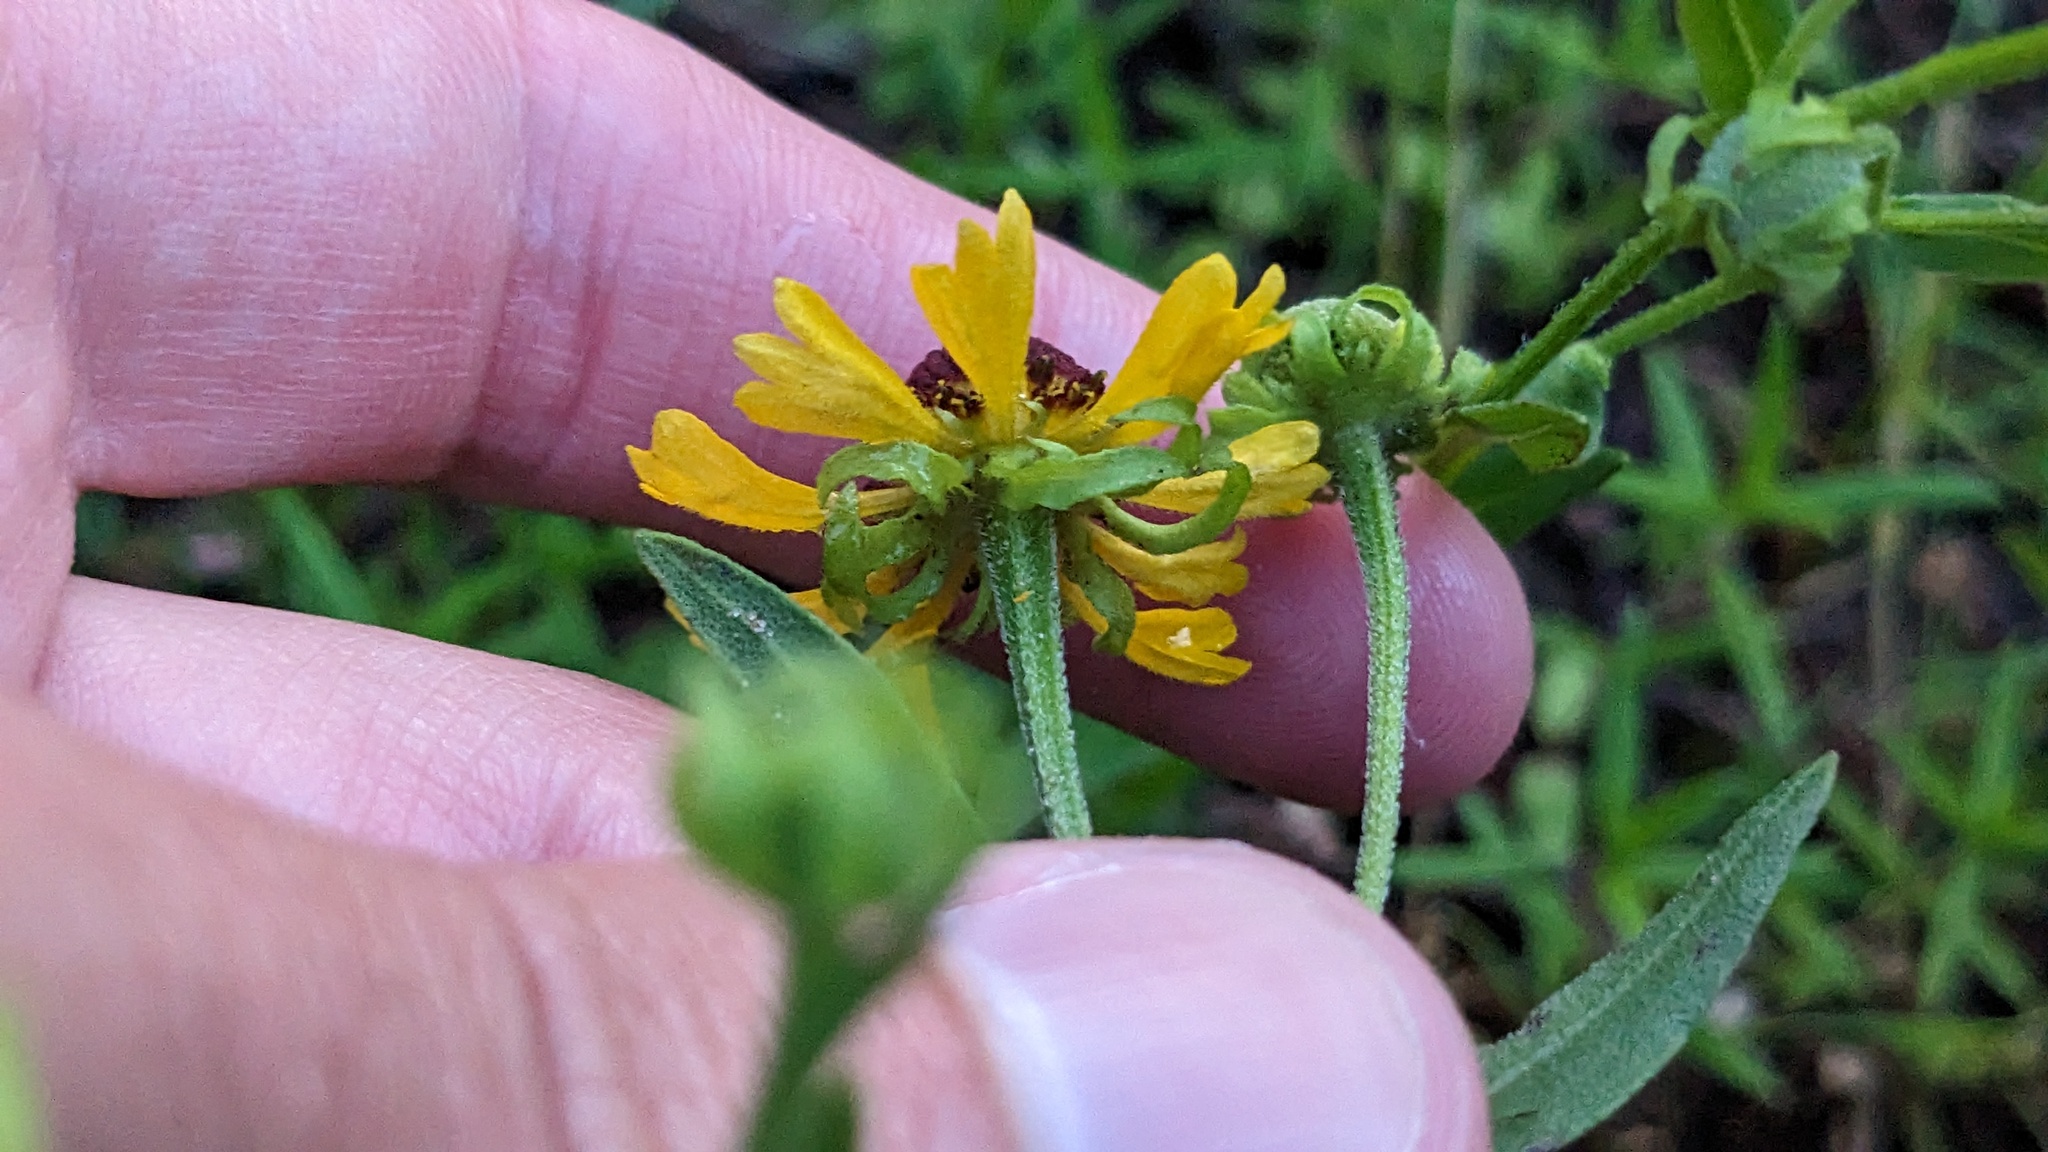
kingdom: Plantae
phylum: Tracheophyta
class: Magnoliopsida
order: Asterales
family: Asteraceae
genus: Helenium
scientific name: Helenium flexuosum
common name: Naked-flowered sneezeweed
